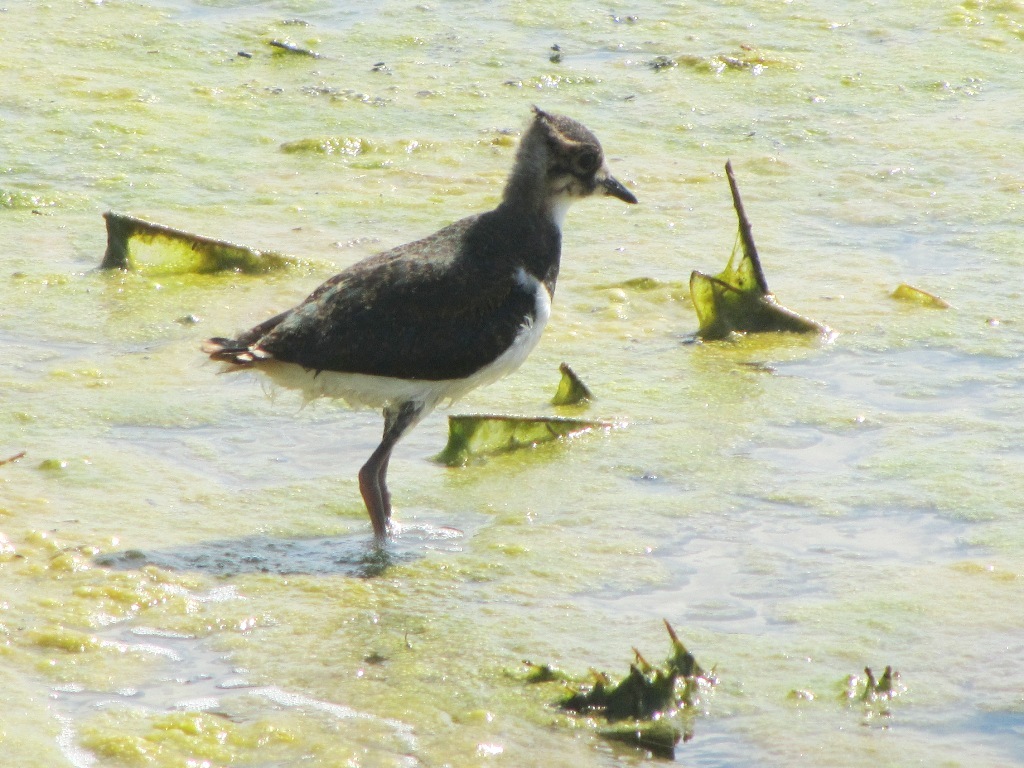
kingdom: Animalia
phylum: Chordata
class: Aves
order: Charadriiformes
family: Charadriidae
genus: Vanellus
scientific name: Vanellus vanellus
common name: Northern lapwing
